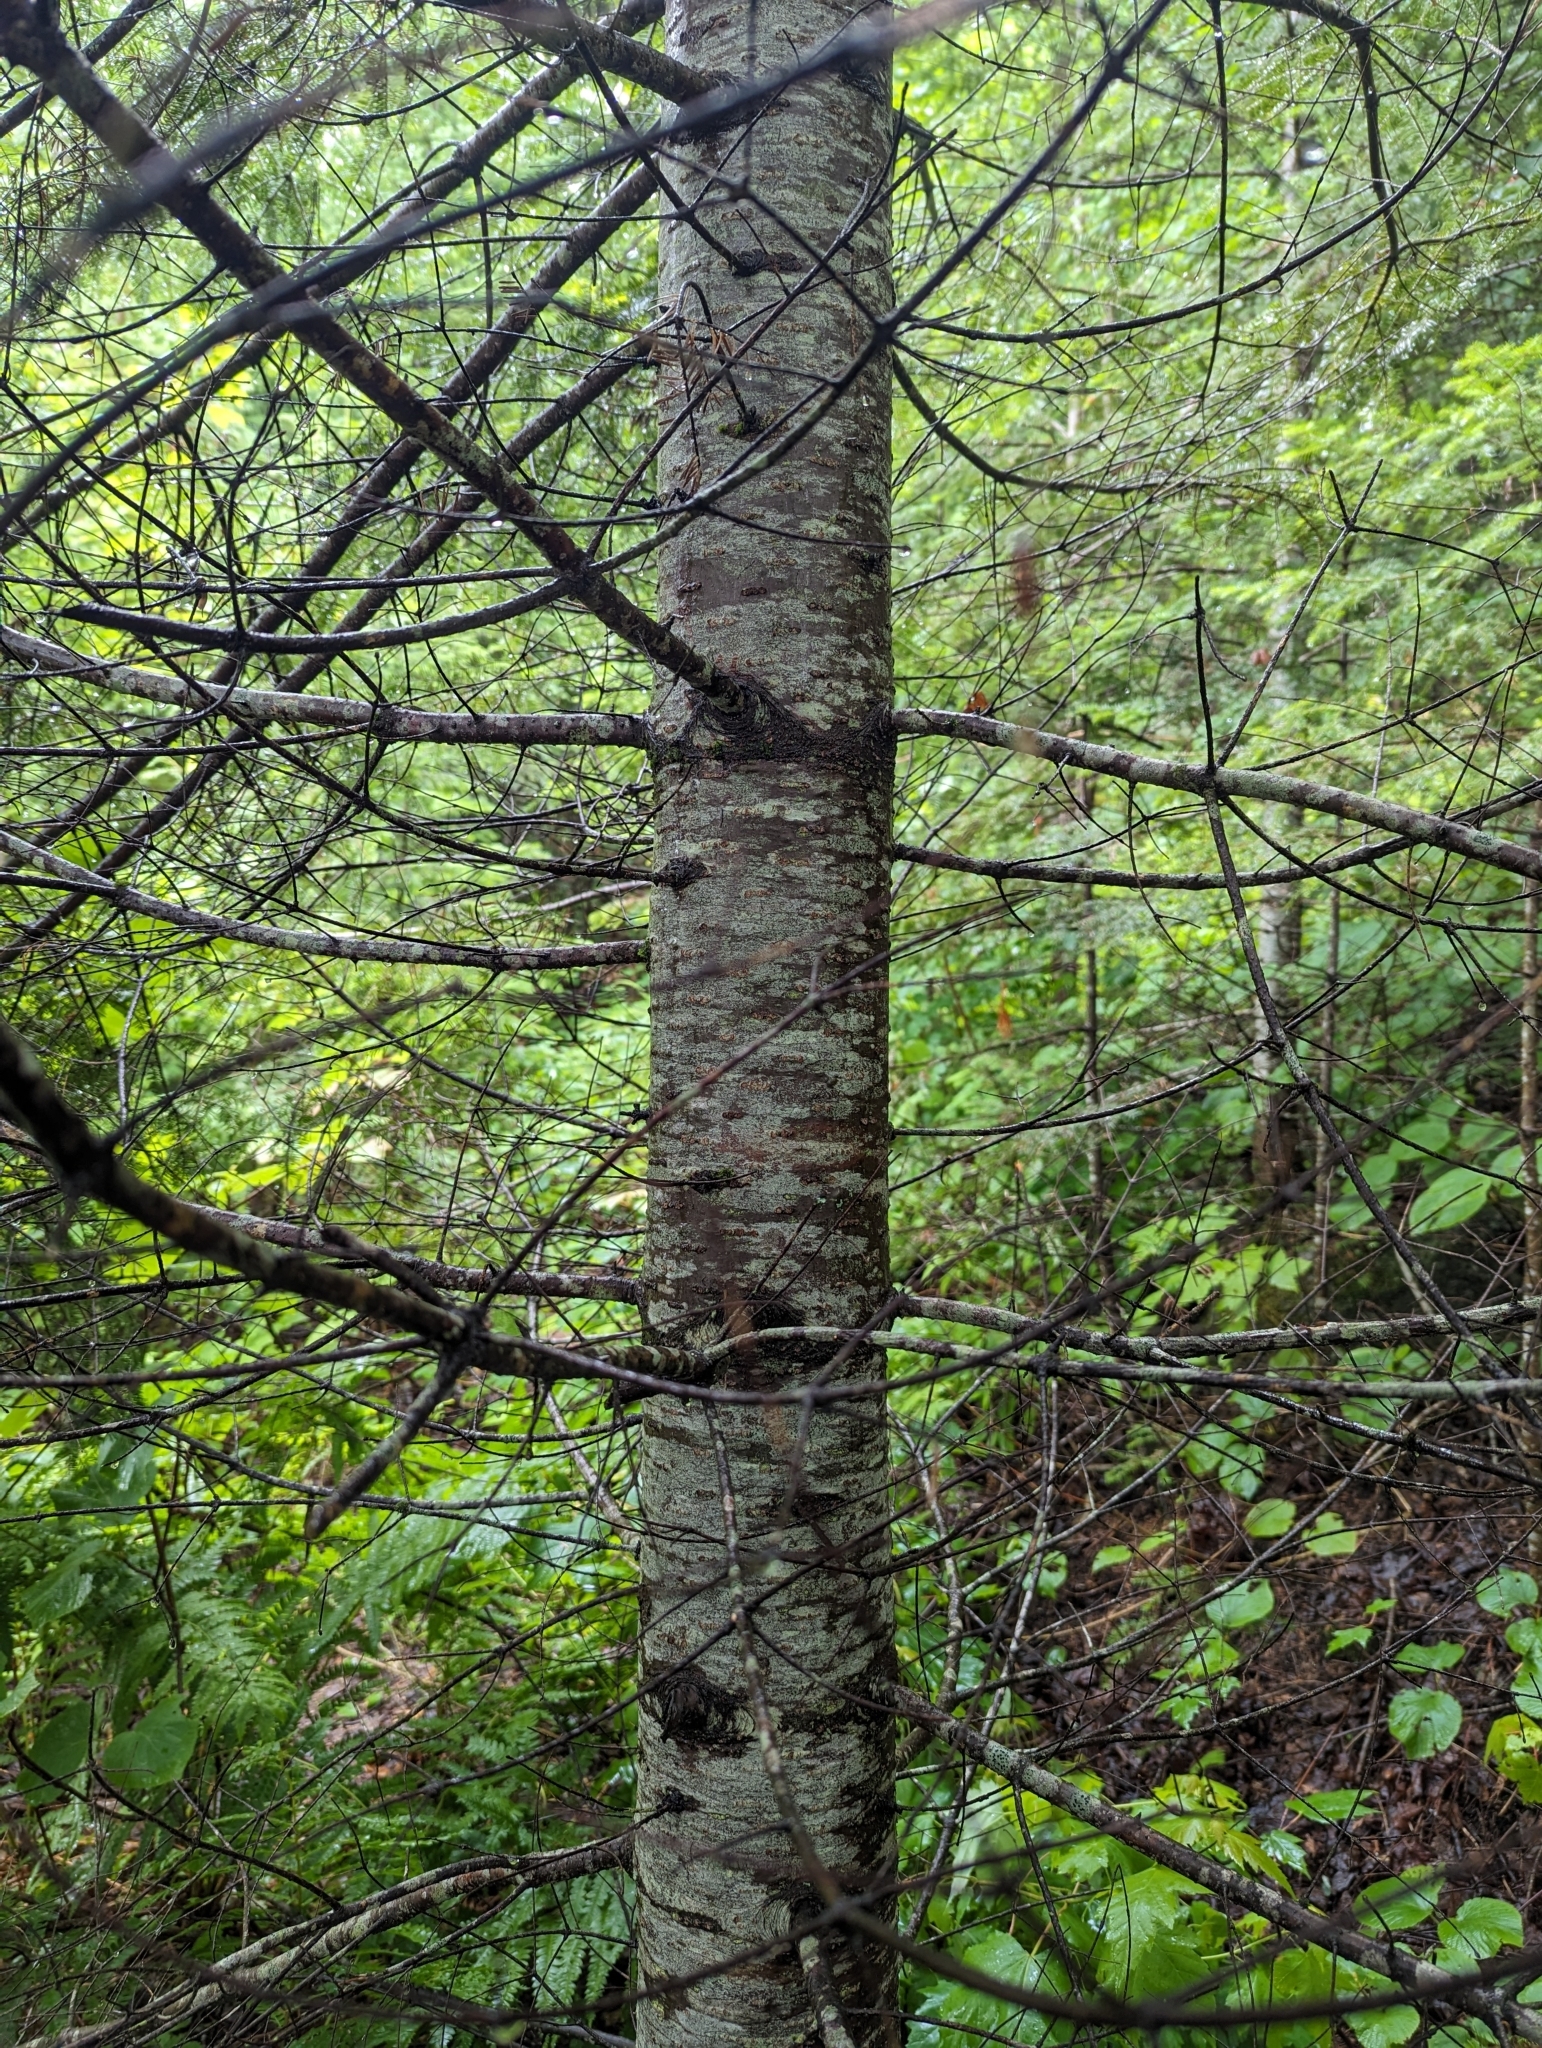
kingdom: Plantae
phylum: Tracheophyta
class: Pinopsida
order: Pinales
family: Pinaceae
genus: Abies
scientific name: Abies balsamea
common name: Balsam fir
